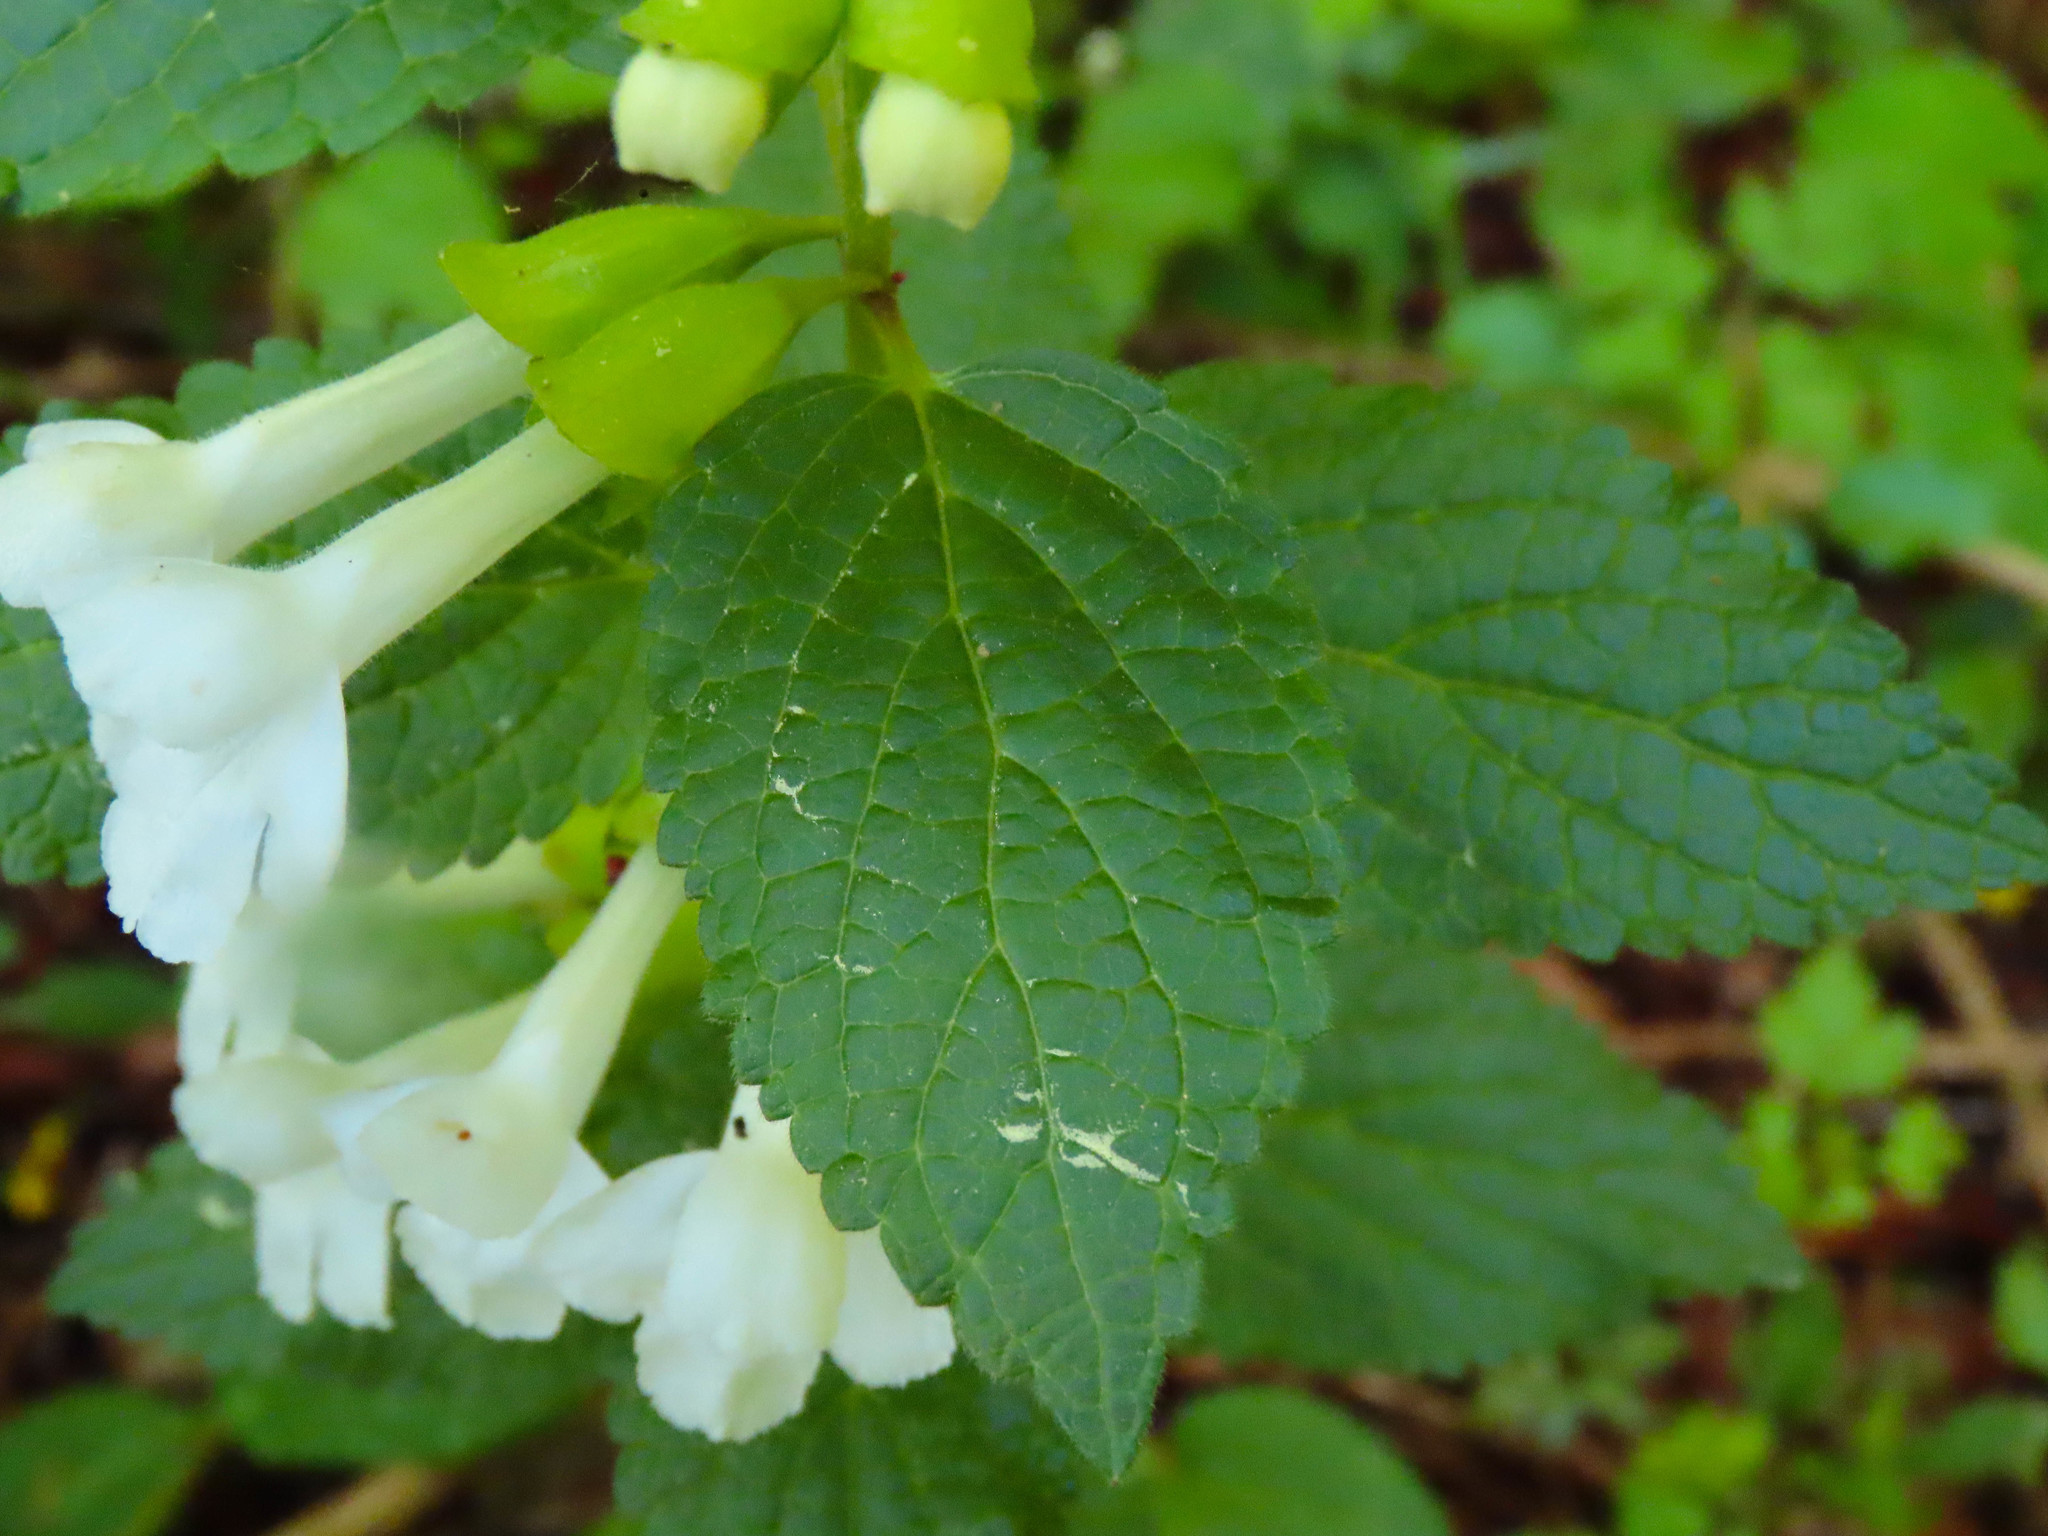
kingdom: Plantae
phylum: Tracheophyta
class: Magnoliopsida
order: Lamiales
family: Lamiaceae
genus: Melittis
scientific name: Melittis melissophyllum
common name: Bastard balm
